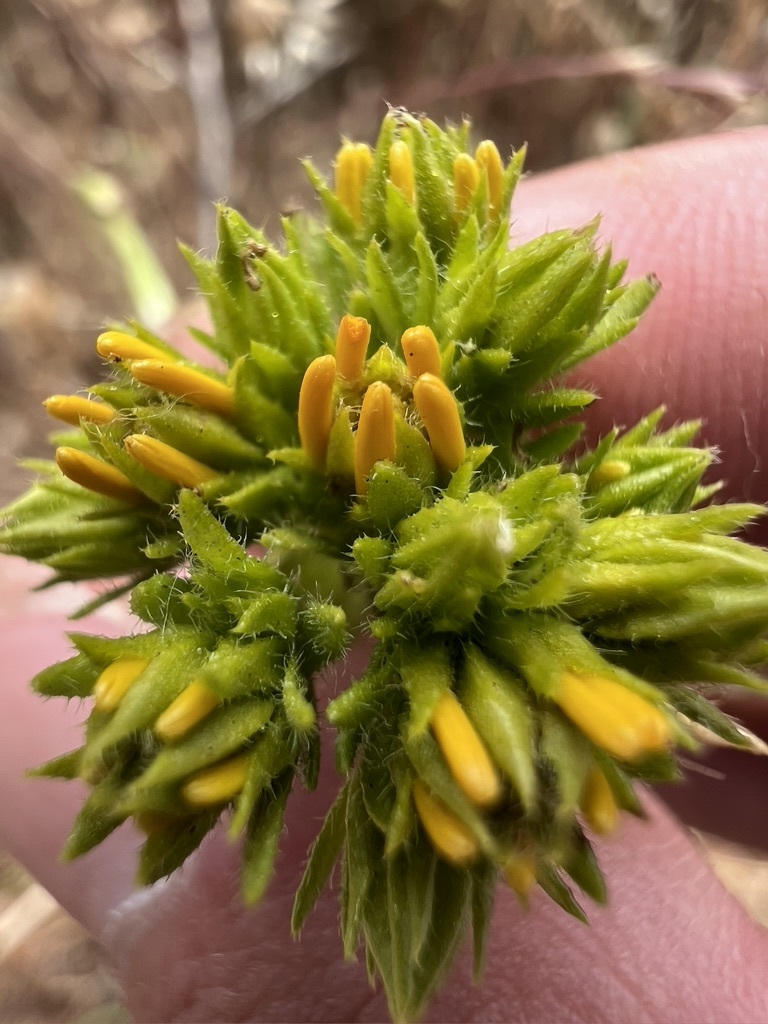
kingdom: Plantae
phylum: Tracheophyta
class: Magnoliopsida
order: Asterales
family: Asteraceae
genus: Deinandra
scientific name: Deinandra fasciculata
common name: Clustered tarweed
